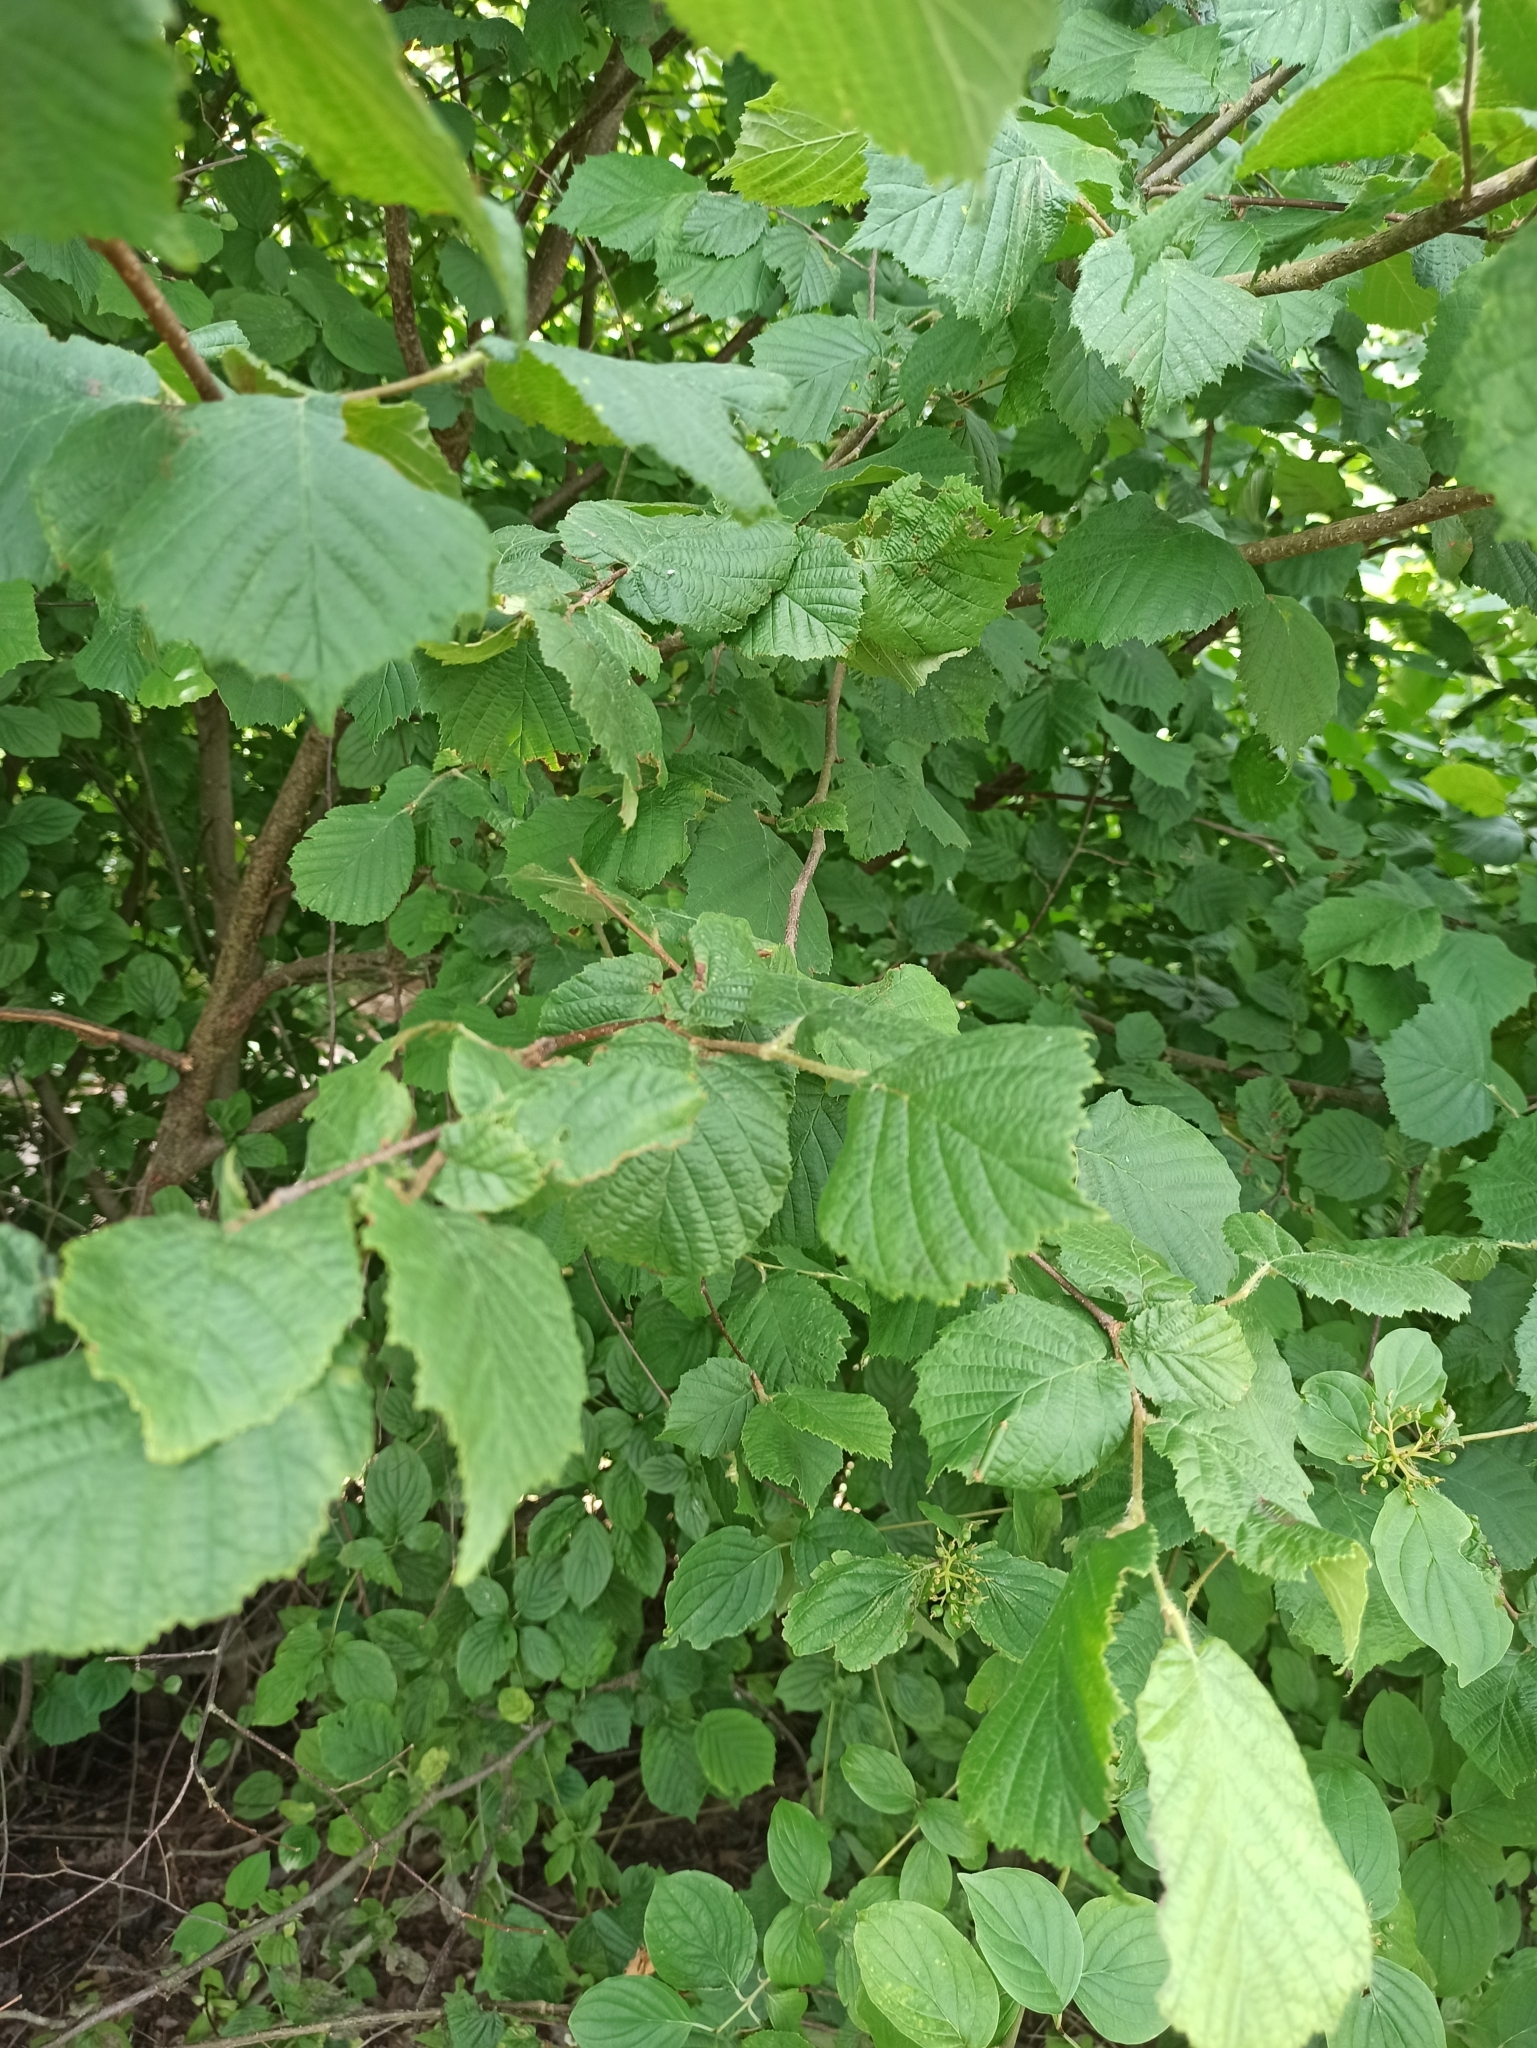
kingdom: Plantae
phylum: Tracheophyta
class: Magnoliopsida
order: Fagales
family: Betulaceae
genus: Corylus
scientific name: Corylus avellana
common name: European hazel
